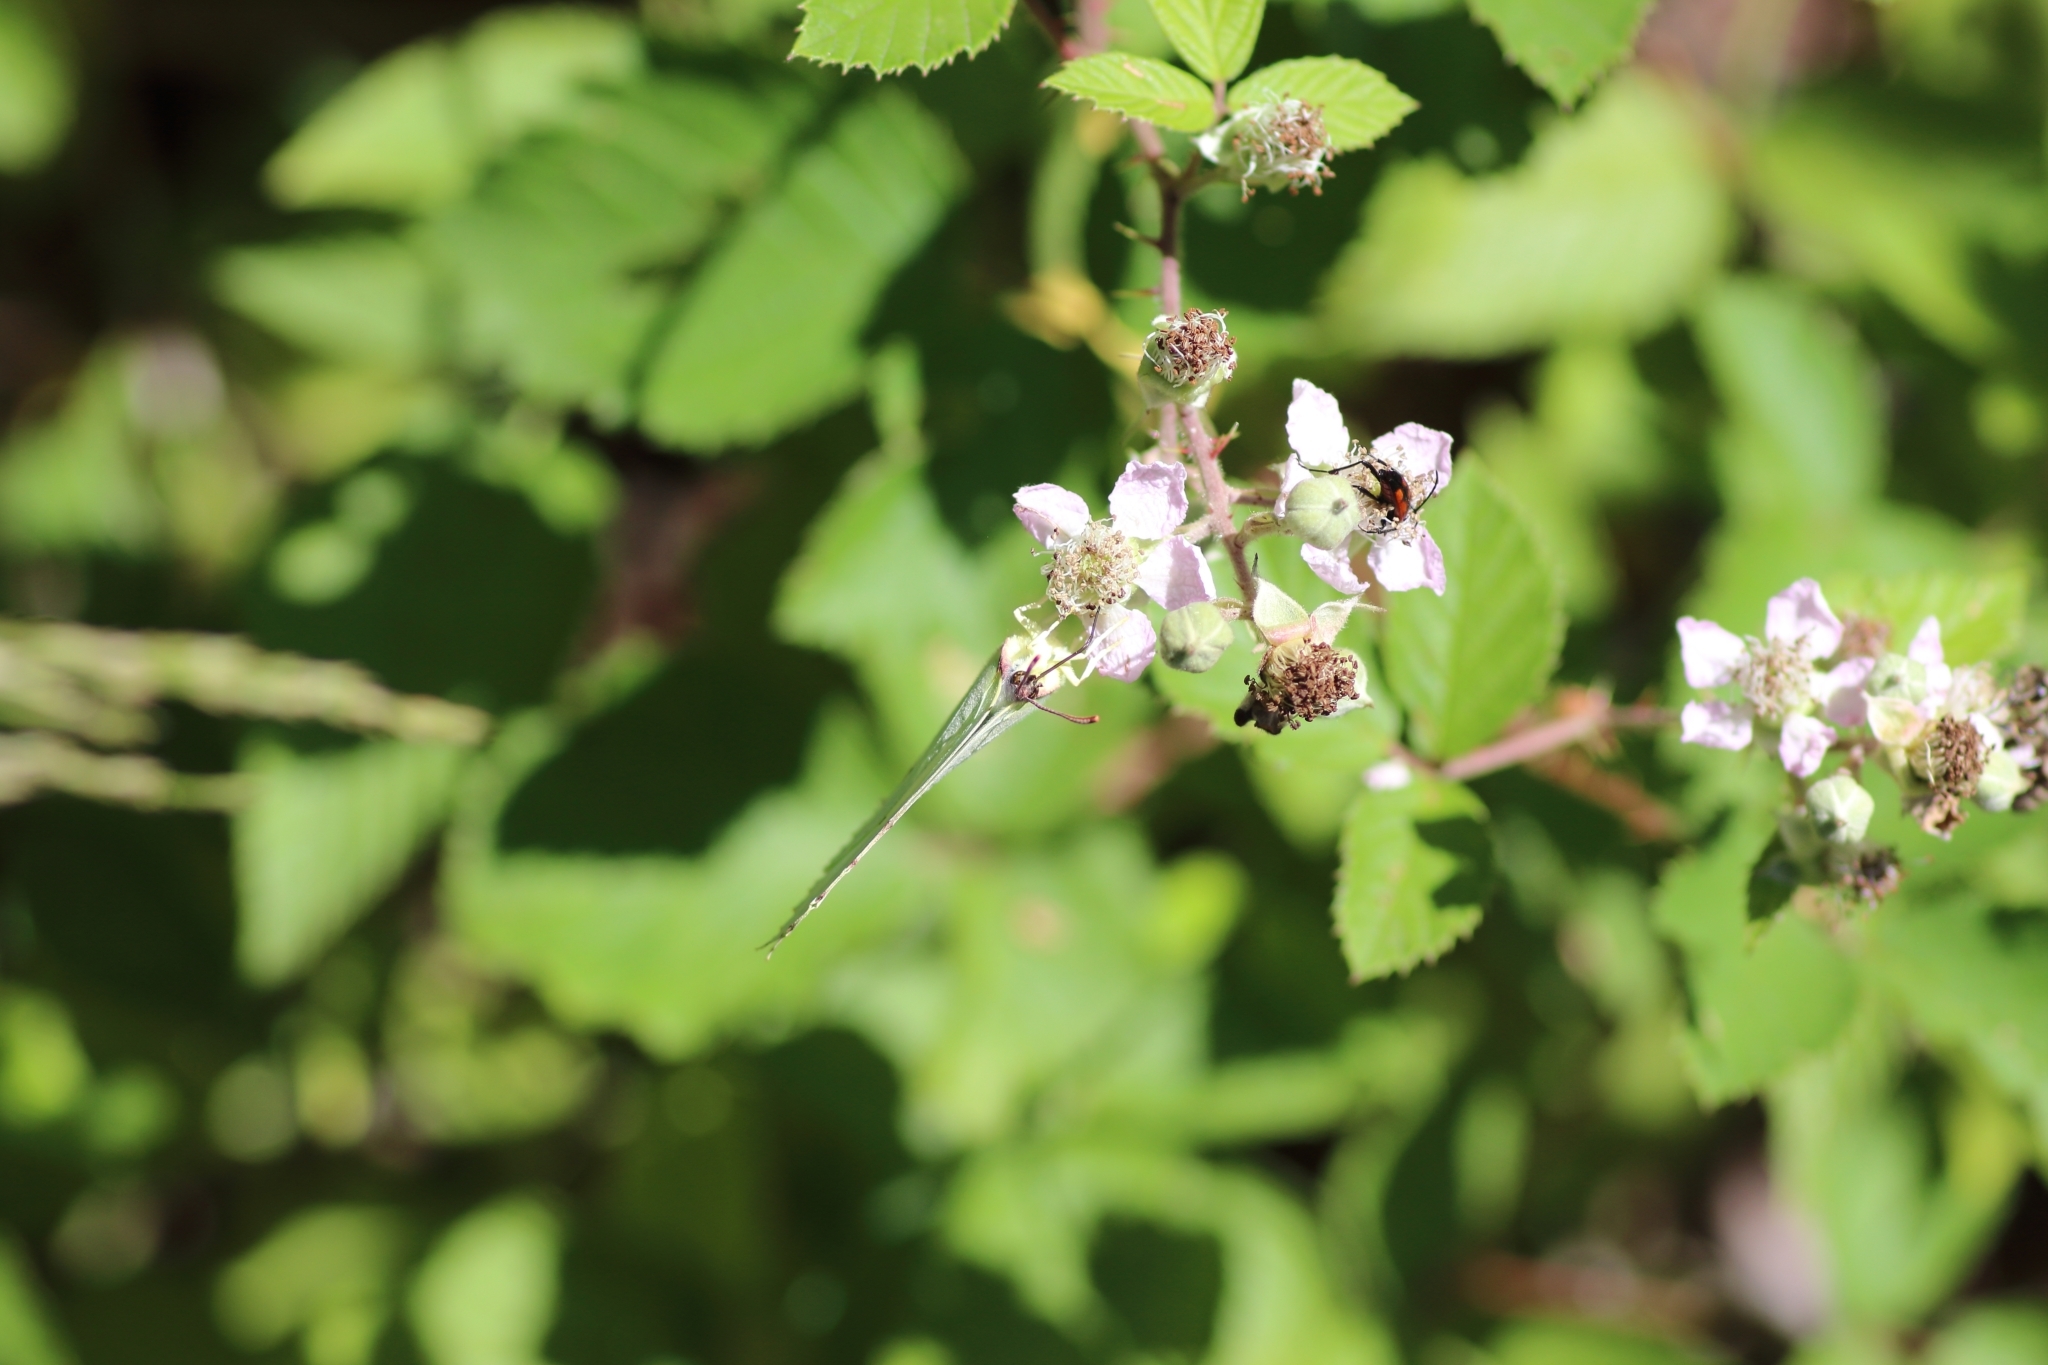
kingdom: Animalia
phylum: Arthropoda
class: Insecta
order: Lepidoptera
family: Pieridae
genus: Gonepteryx
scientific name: Gonepteryx rhamni
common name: Brimstone
